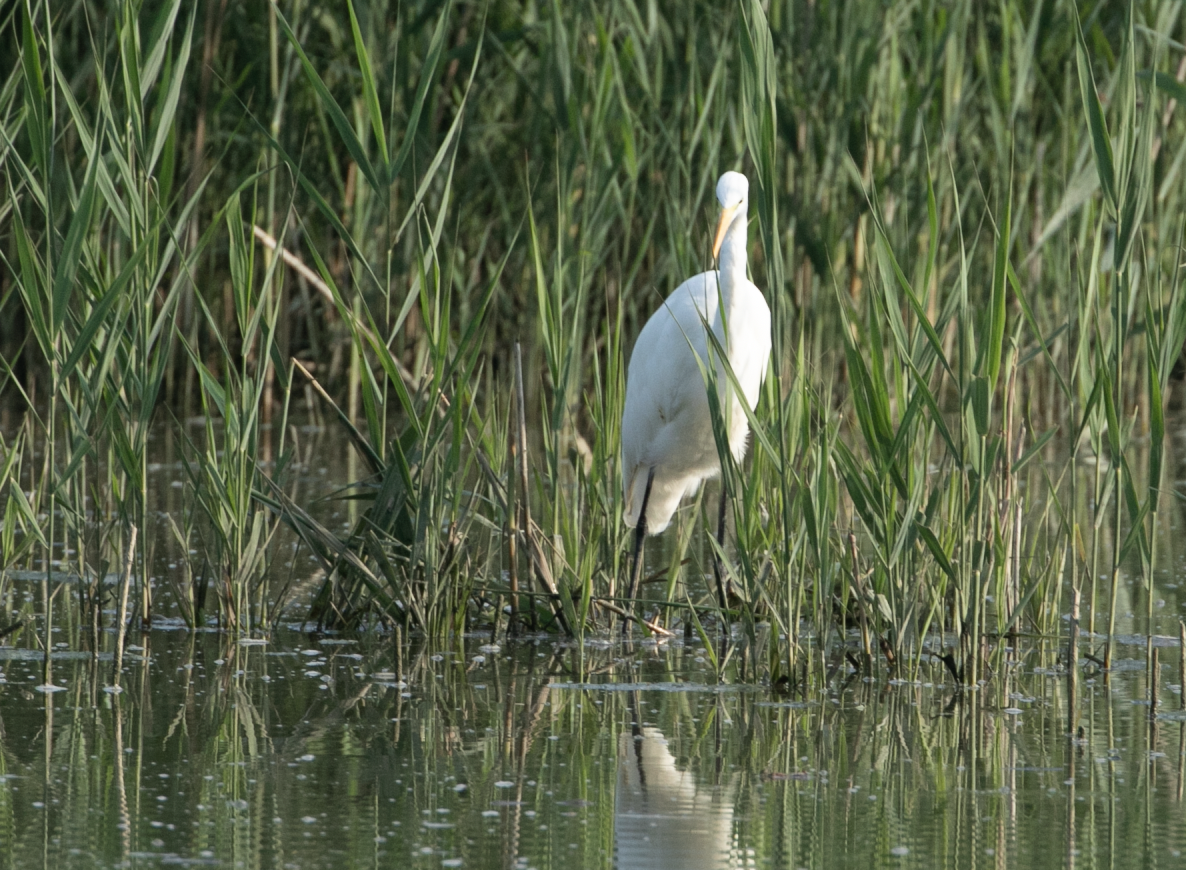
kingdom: Animalia
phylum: Chordata
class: Aves
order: Pelecaniformes
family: Ardeidae
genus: Ardea
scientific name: Ardea alba
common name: Great egret
